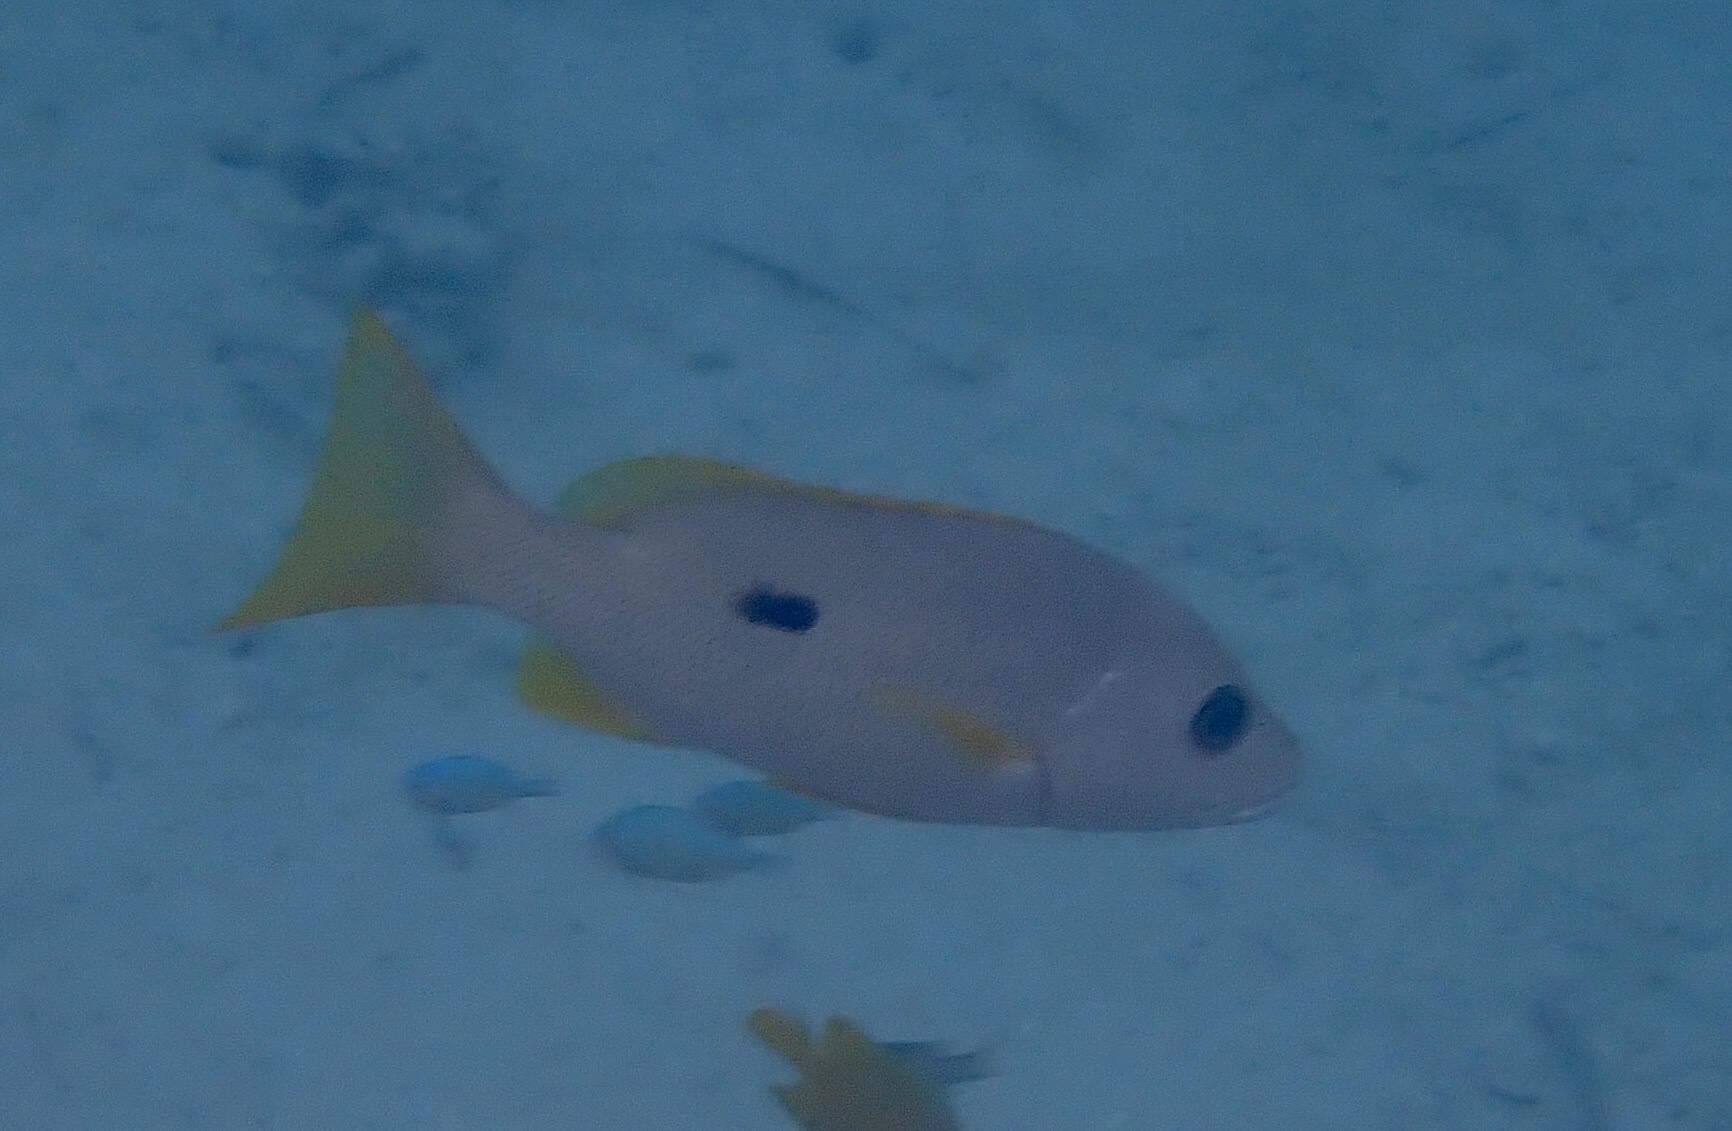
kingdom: Animalia
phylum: Chordata
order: Perciformes
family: Lutjanidae
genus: Lutjanus
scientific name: Lutjanus monostigma
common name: Onespot snapper
